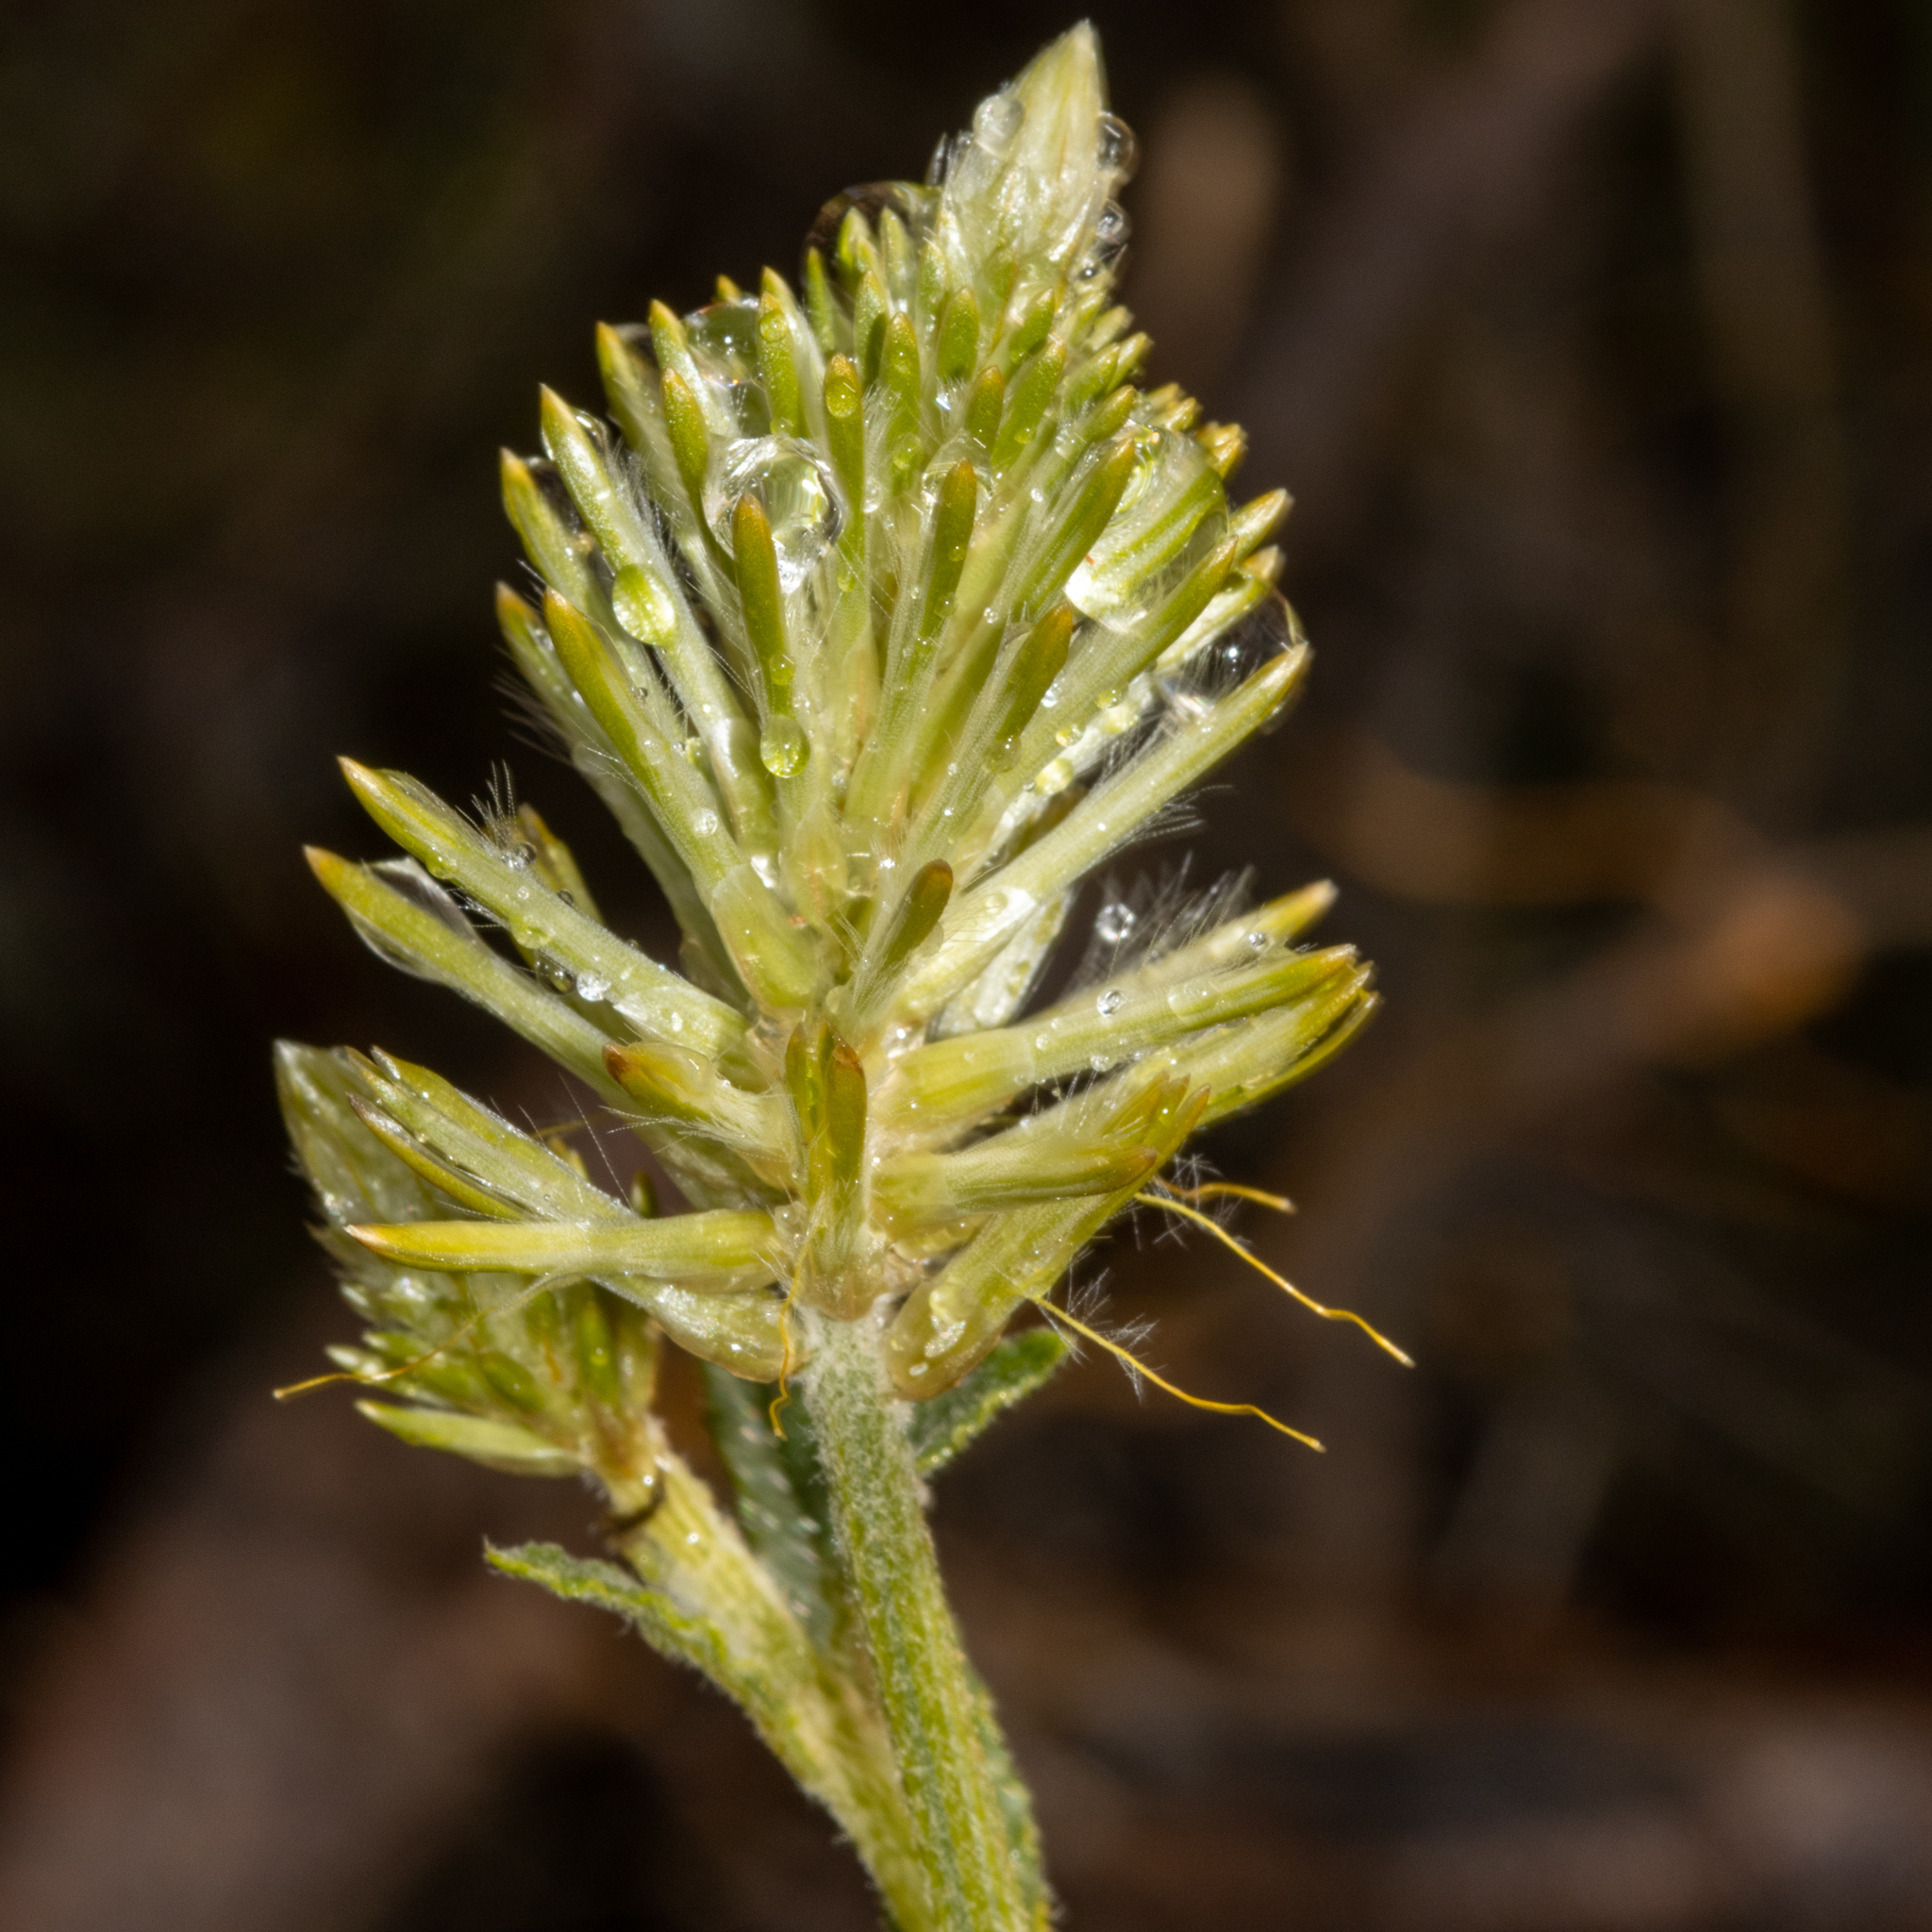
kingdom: Plantae
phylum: Tracheophyta
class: Magnoliopsida
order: Caryophyllales
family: Amaranthaceae
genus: Ptilotus
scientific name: Ptilotus polystachyus
